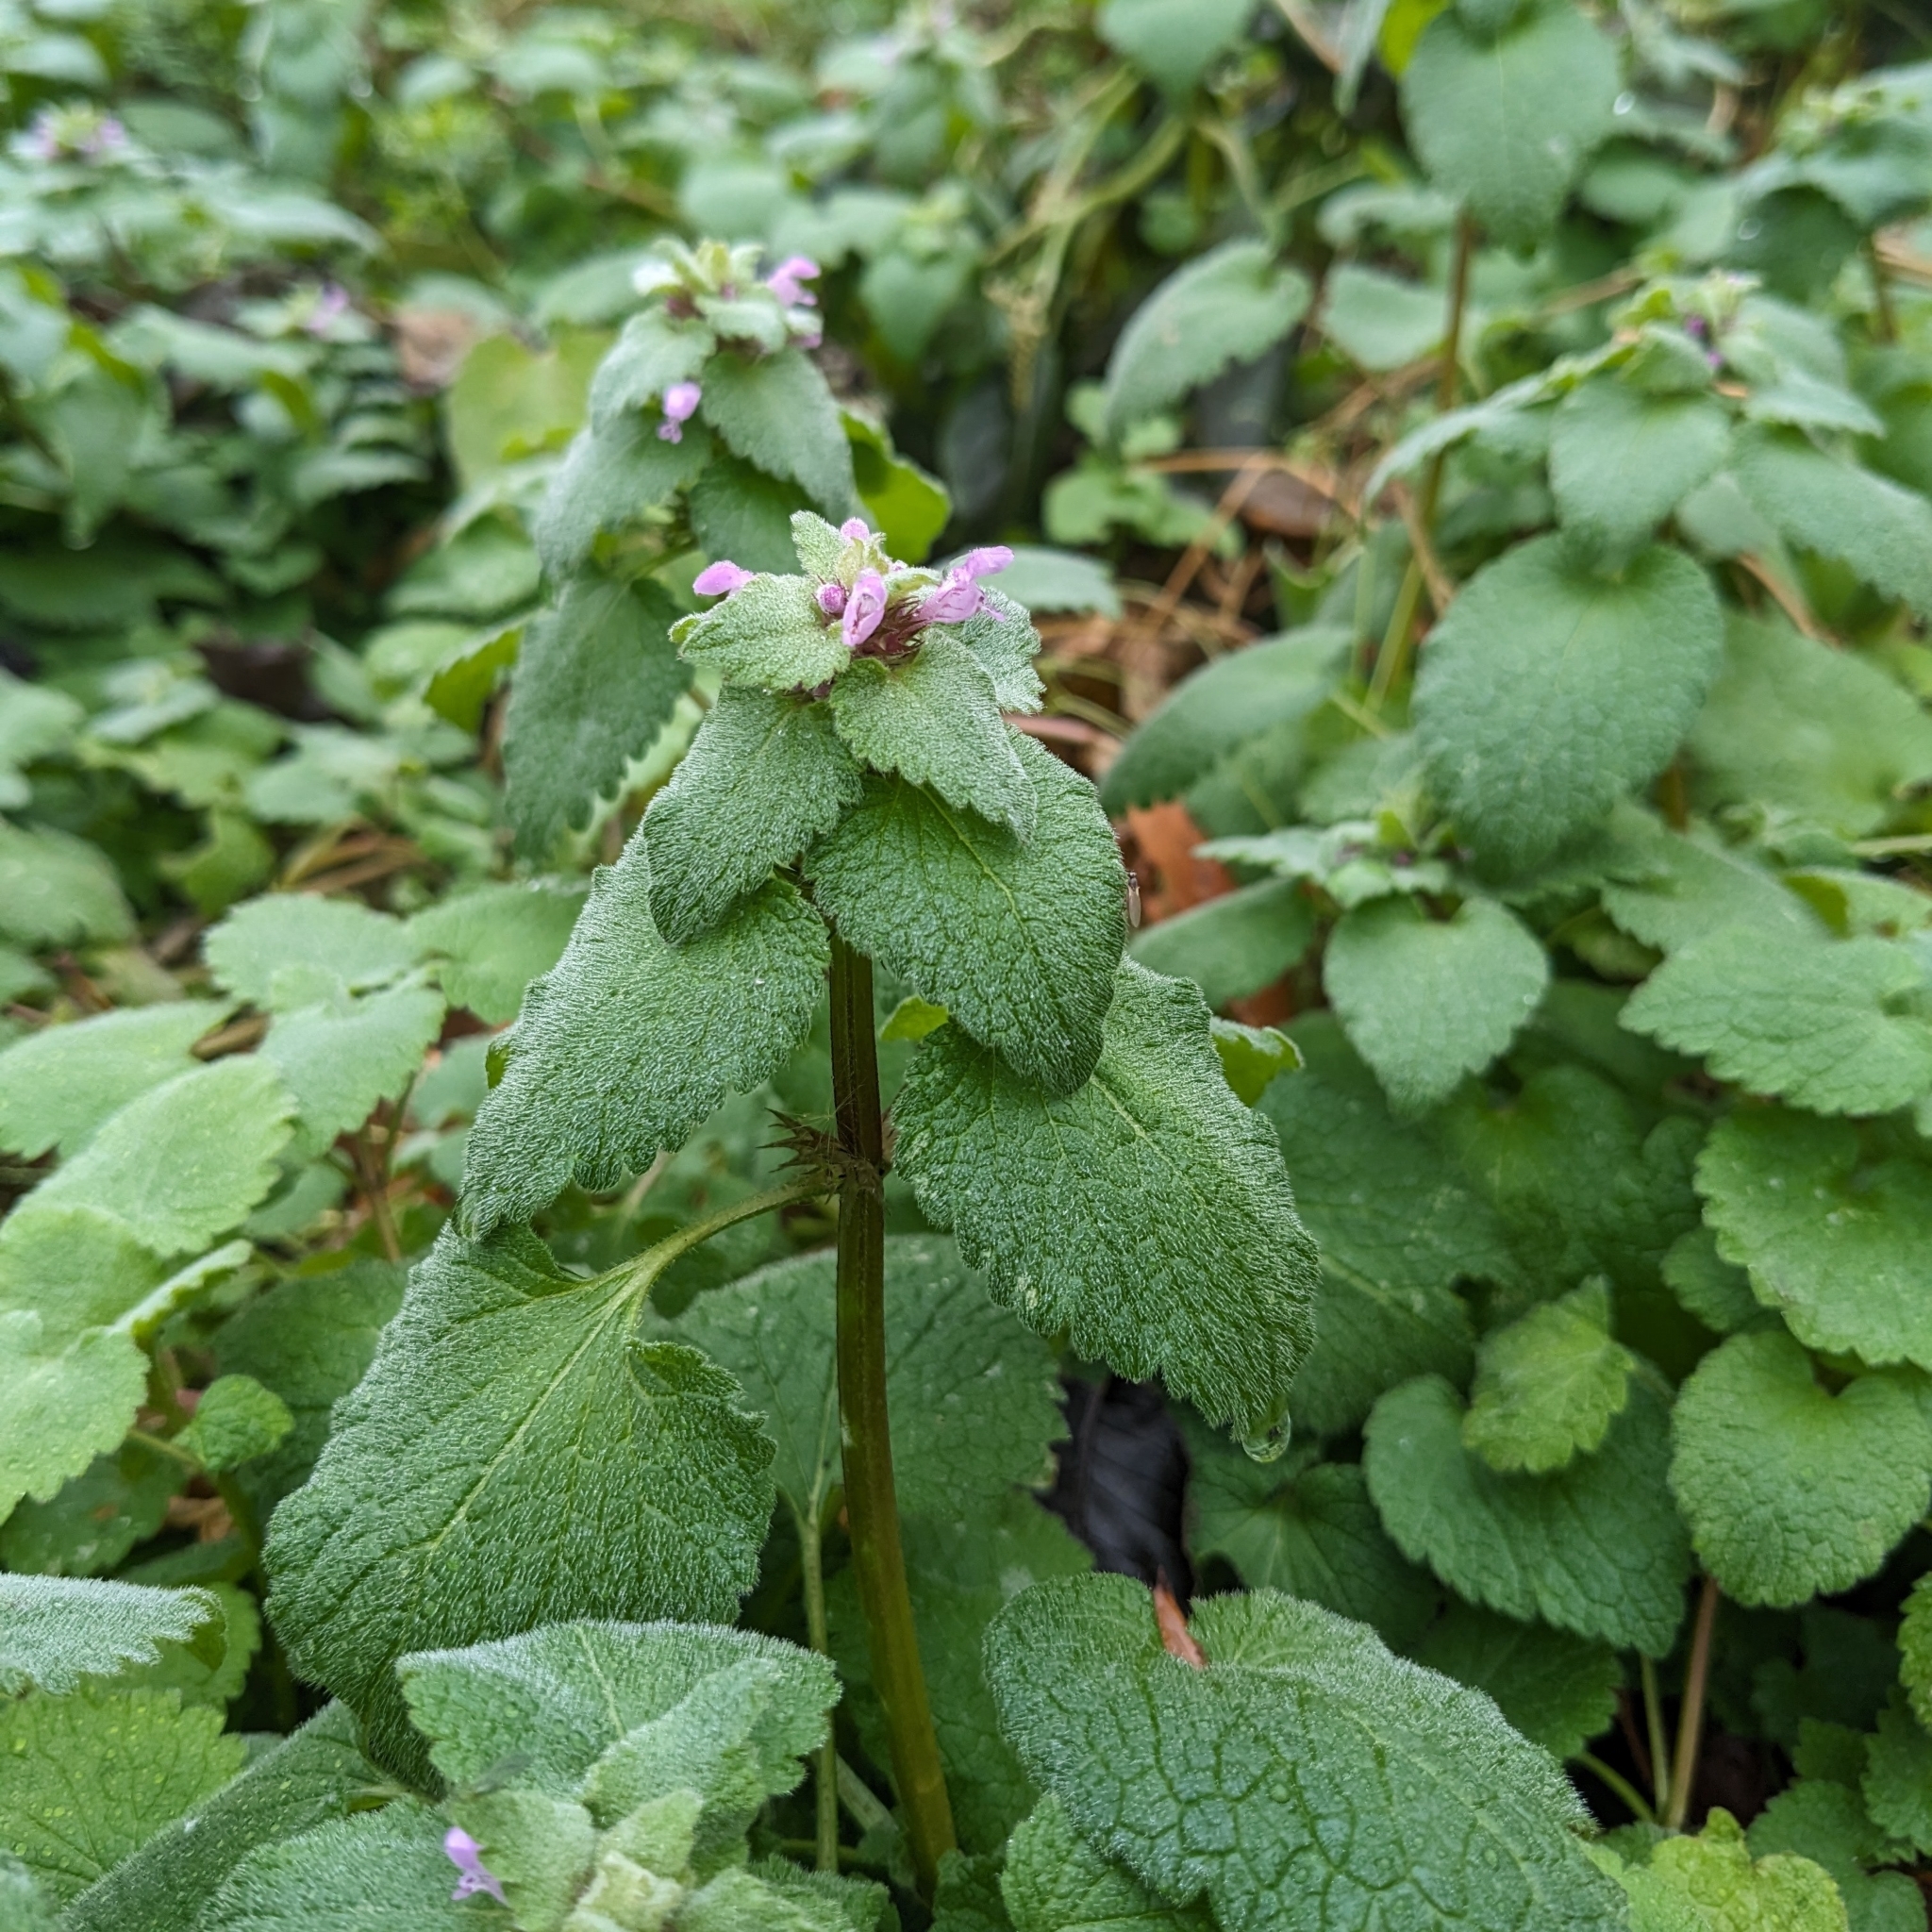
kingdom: Plantae
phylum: Tracheophyta
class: Magnoliopsida
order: Lamiales
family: Lamiaceae
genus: Lamium
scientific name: Lamium purpureum
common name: Red dead-nettle
